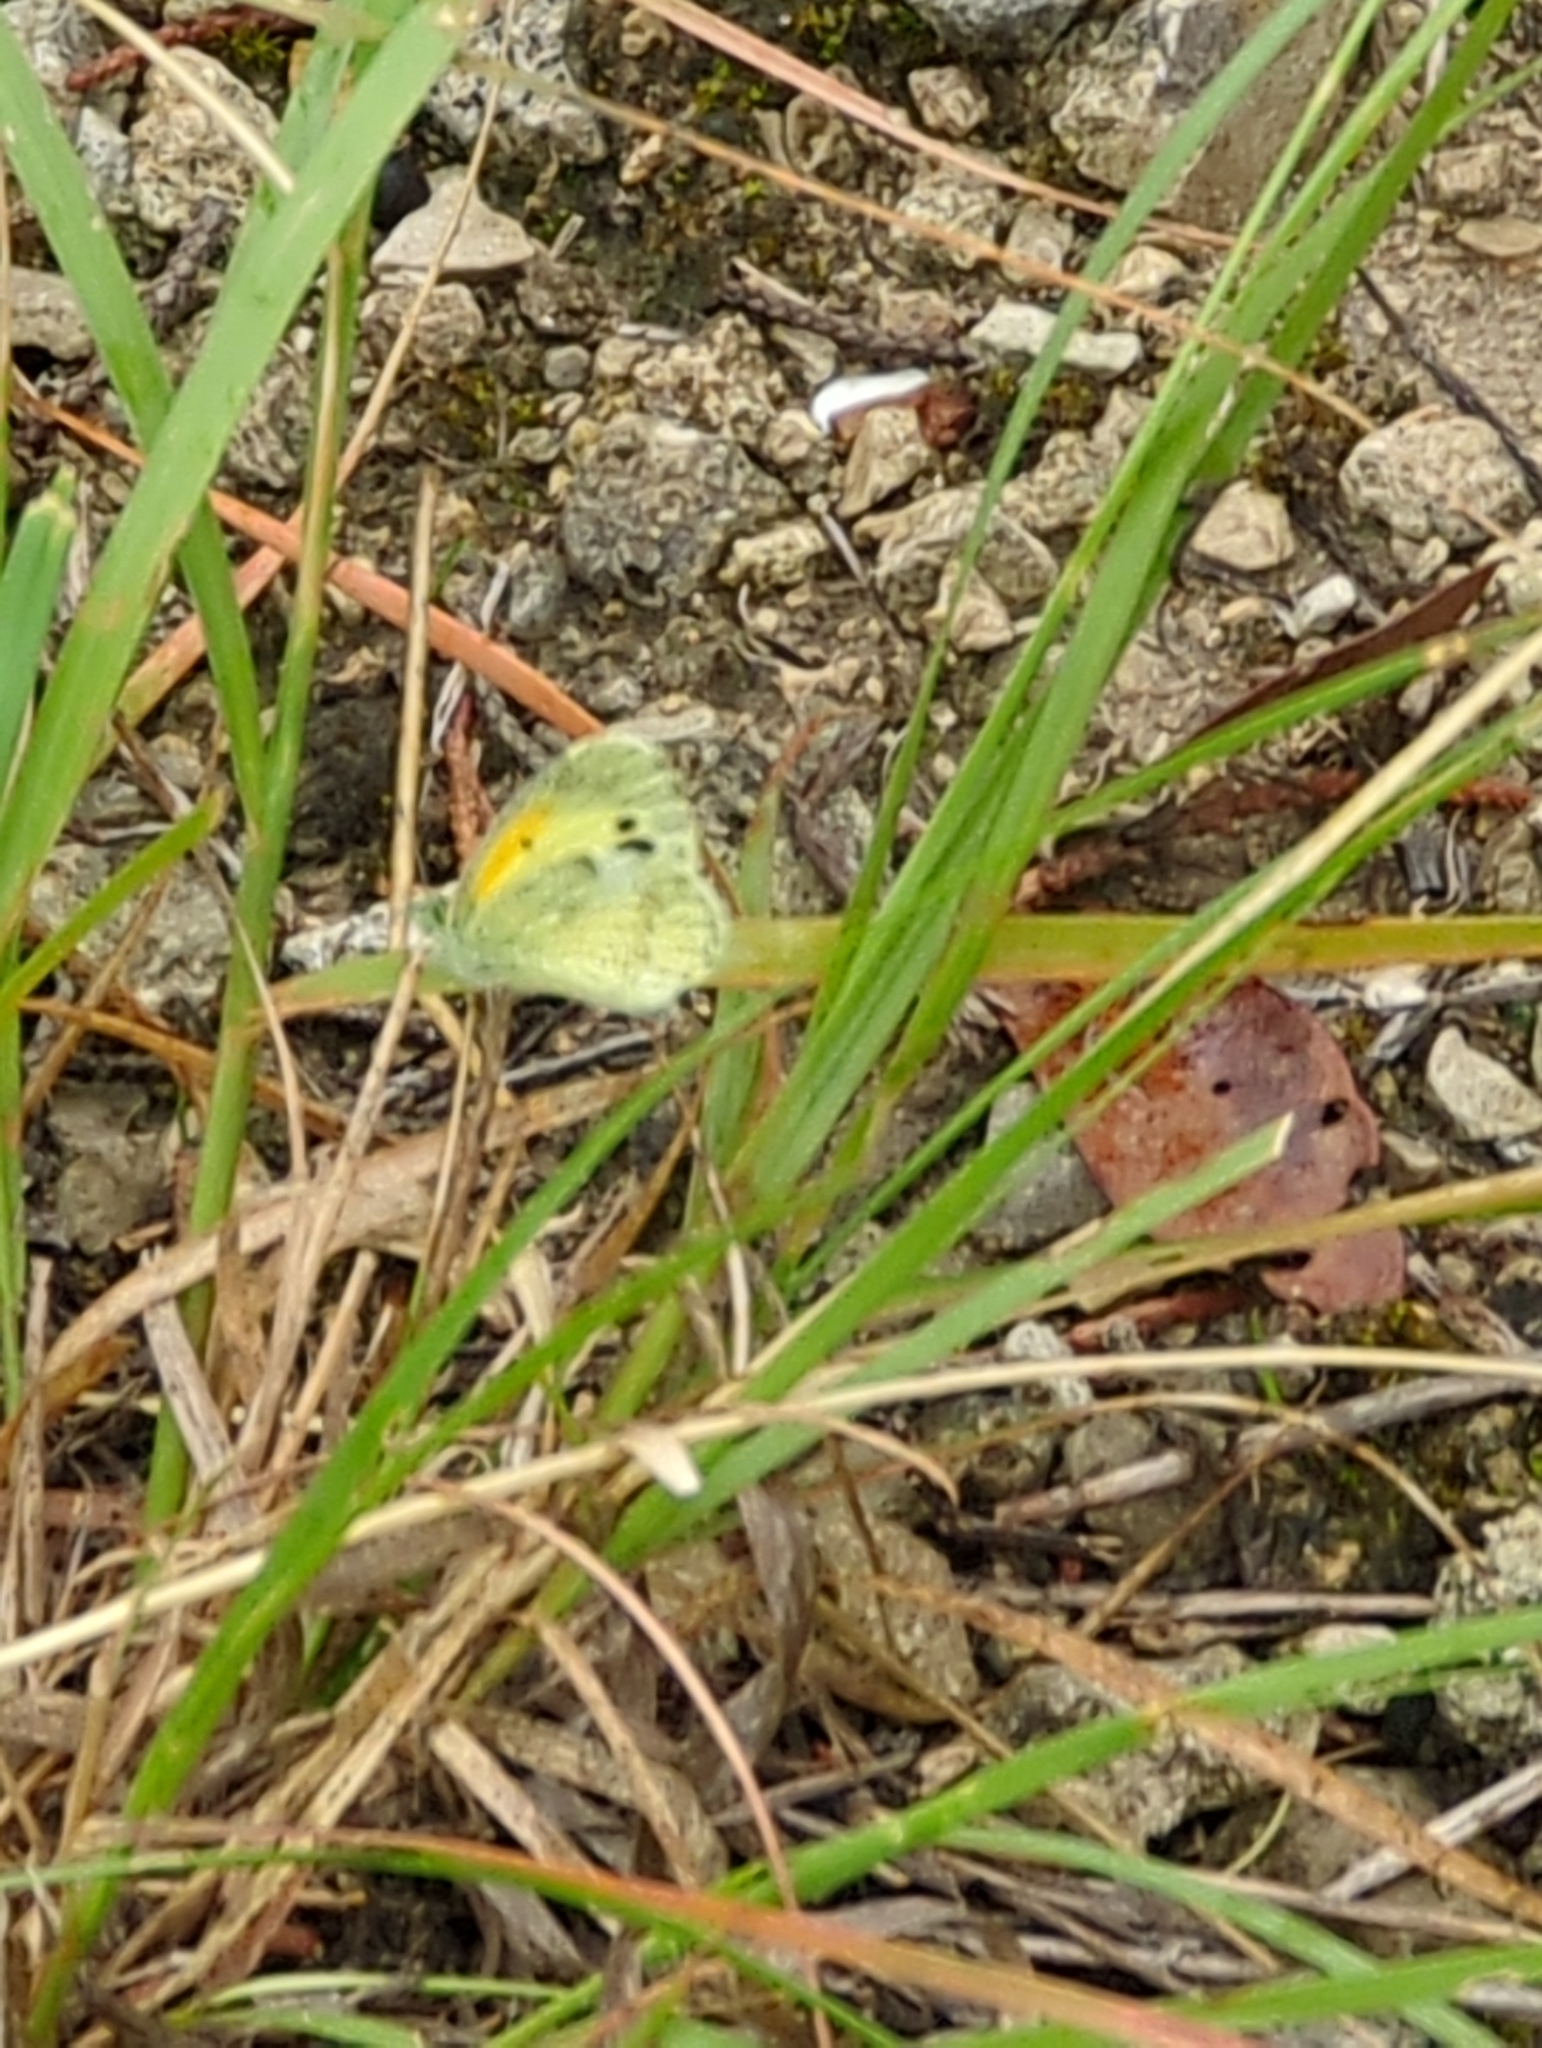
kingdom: Animalia
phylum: Arthropoda
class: Insecta
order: Lepidoptera
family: Pieridae
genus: Nathalis
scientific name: Nathalis iole
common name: Dainty sulphur
